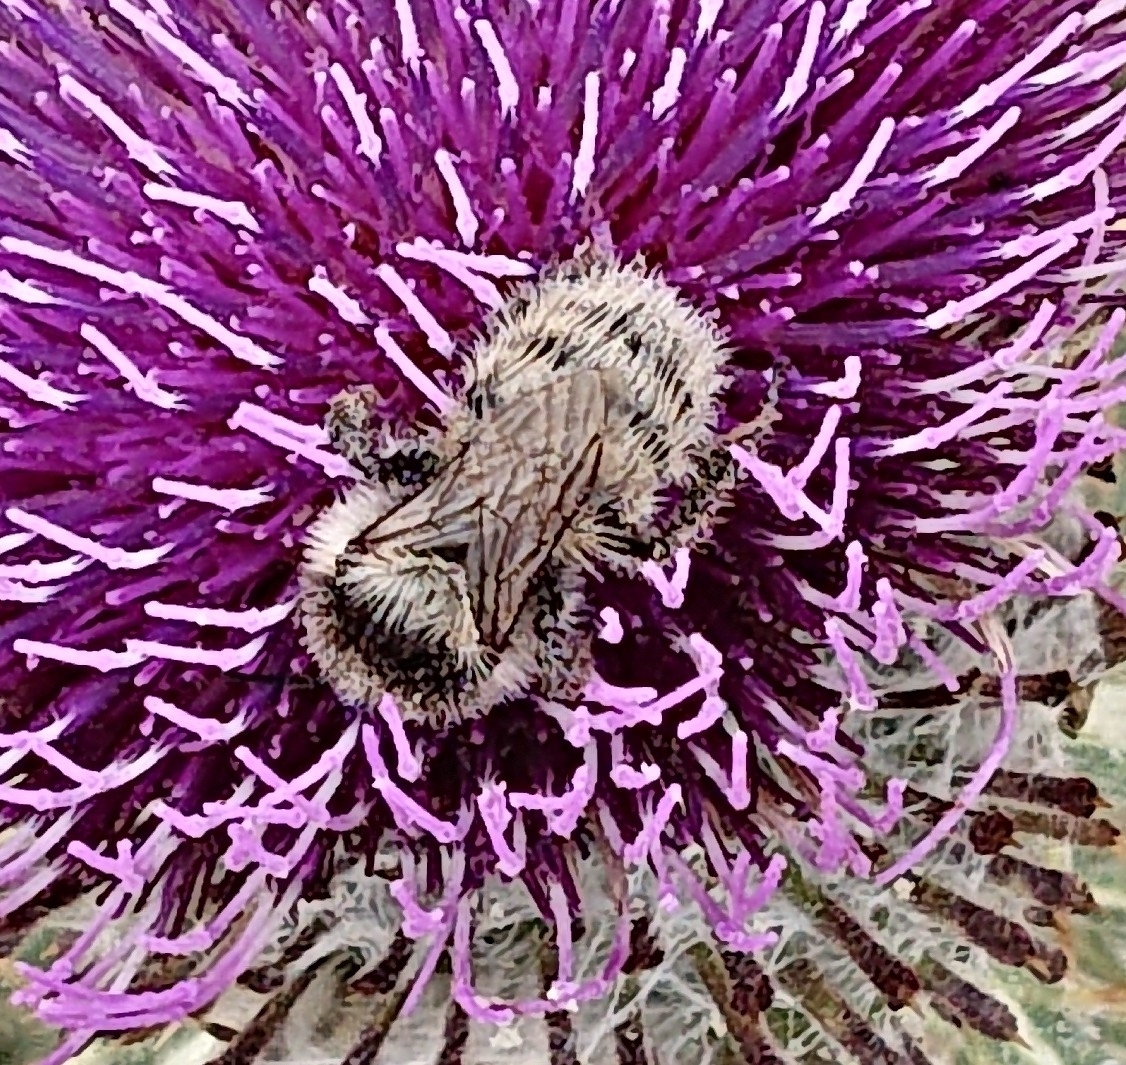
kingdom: Animalia
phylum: Arthropoda
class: Insecta
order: Hymenoptera
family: Apidae
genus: Bombus
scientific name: Bombus mesomelas
